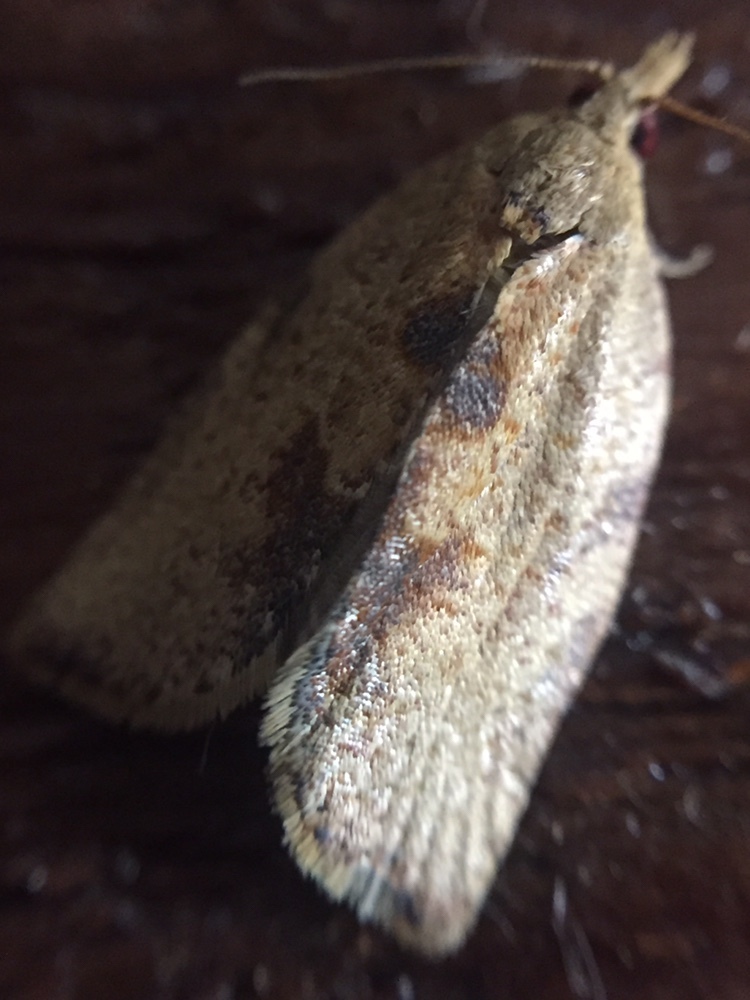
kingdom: Animalia
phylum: Arthropoda
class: Insecta
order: Lepidoptera
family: Tortricidae
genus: Epiphyas
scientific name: Epiphyas postvittana
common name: Light brown apple moth
